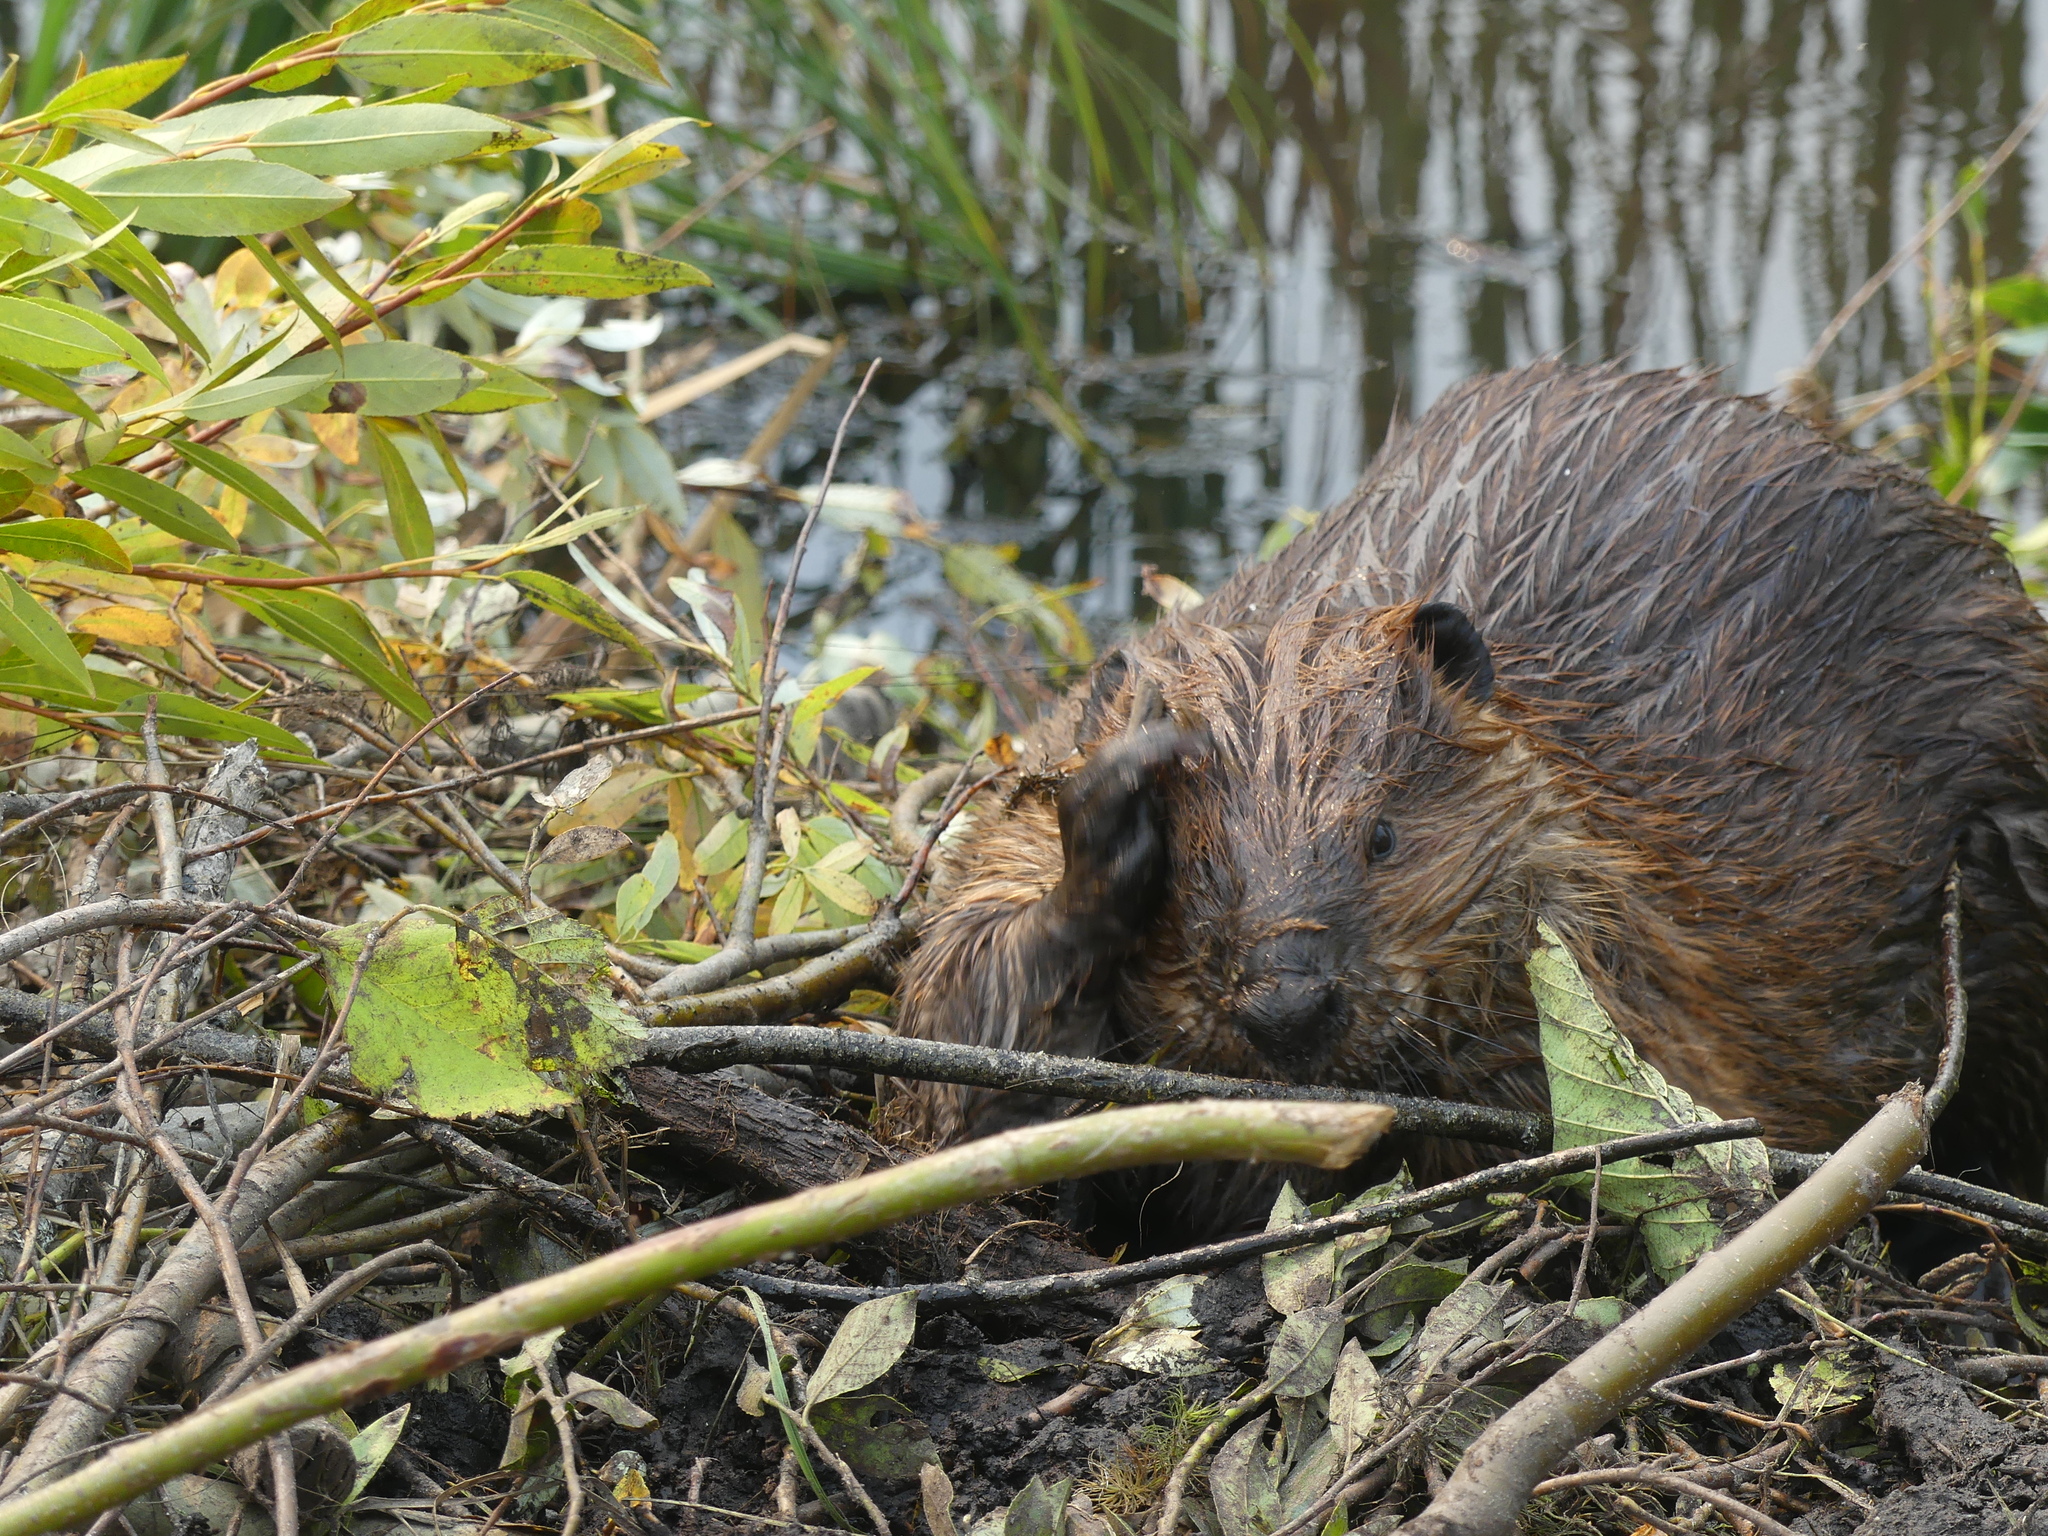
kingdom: Animalia
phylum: Chordata
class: Mammalia
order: Rodentia
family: Castoridae
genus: Castor
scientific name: Castor canadensis
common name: American beaver
